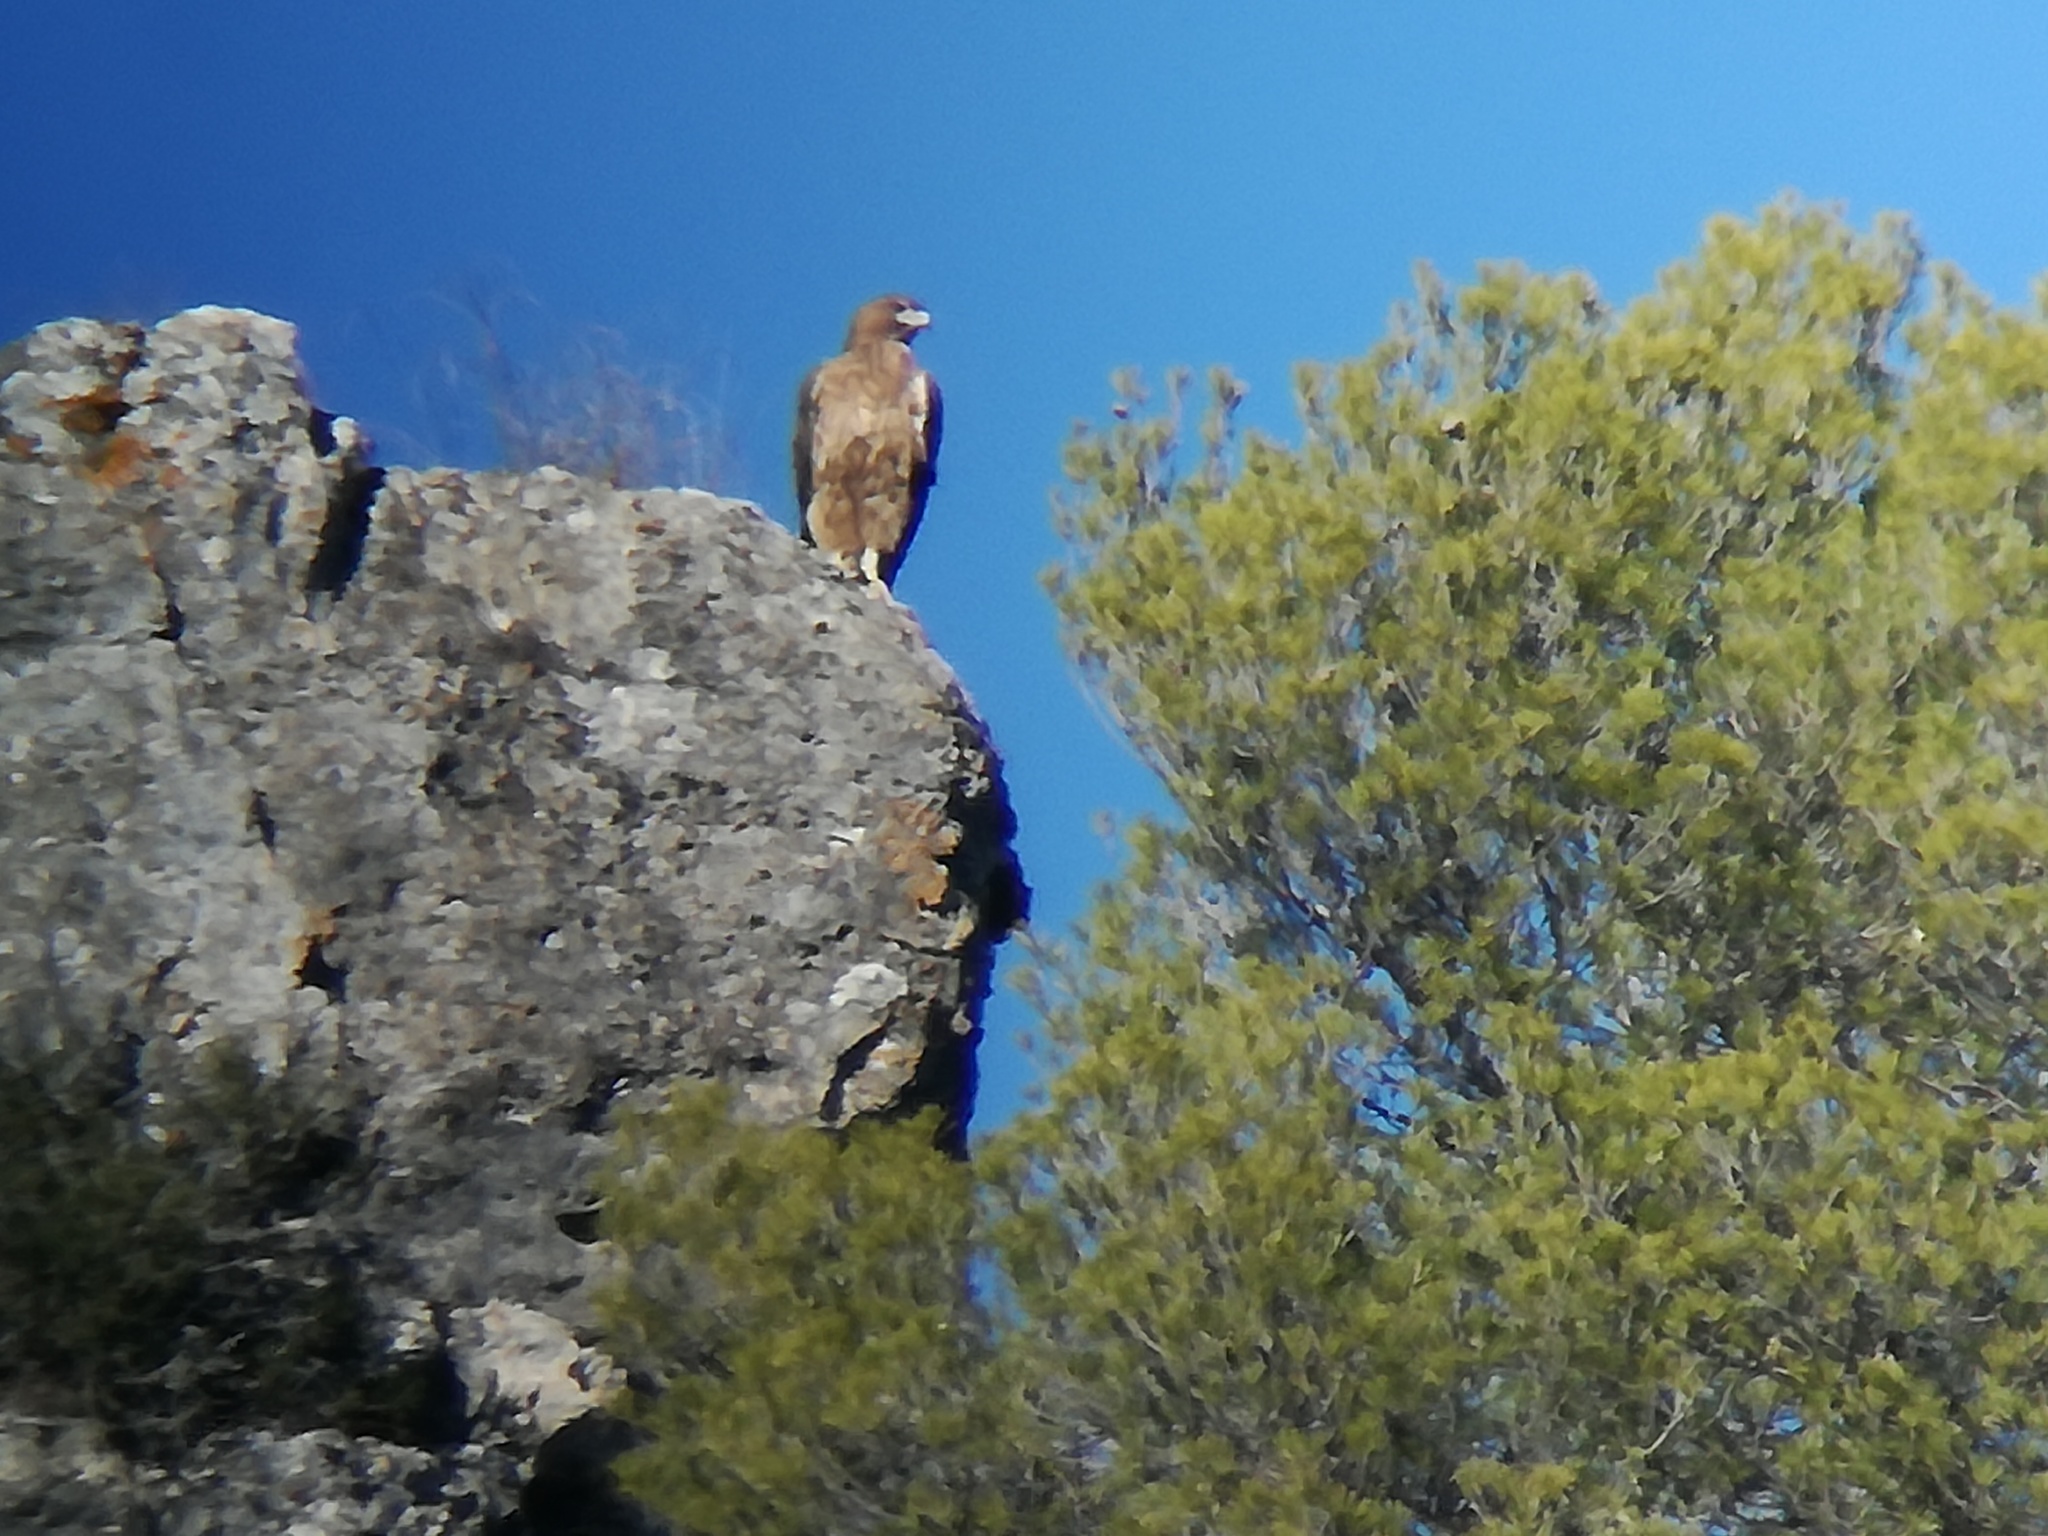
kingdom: Animalia
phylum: Chordata
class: Aves
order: Accipitriformes
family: Accipitridae
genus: Aquila
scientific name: Aquila fasciata
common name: Bonelli's eagle
